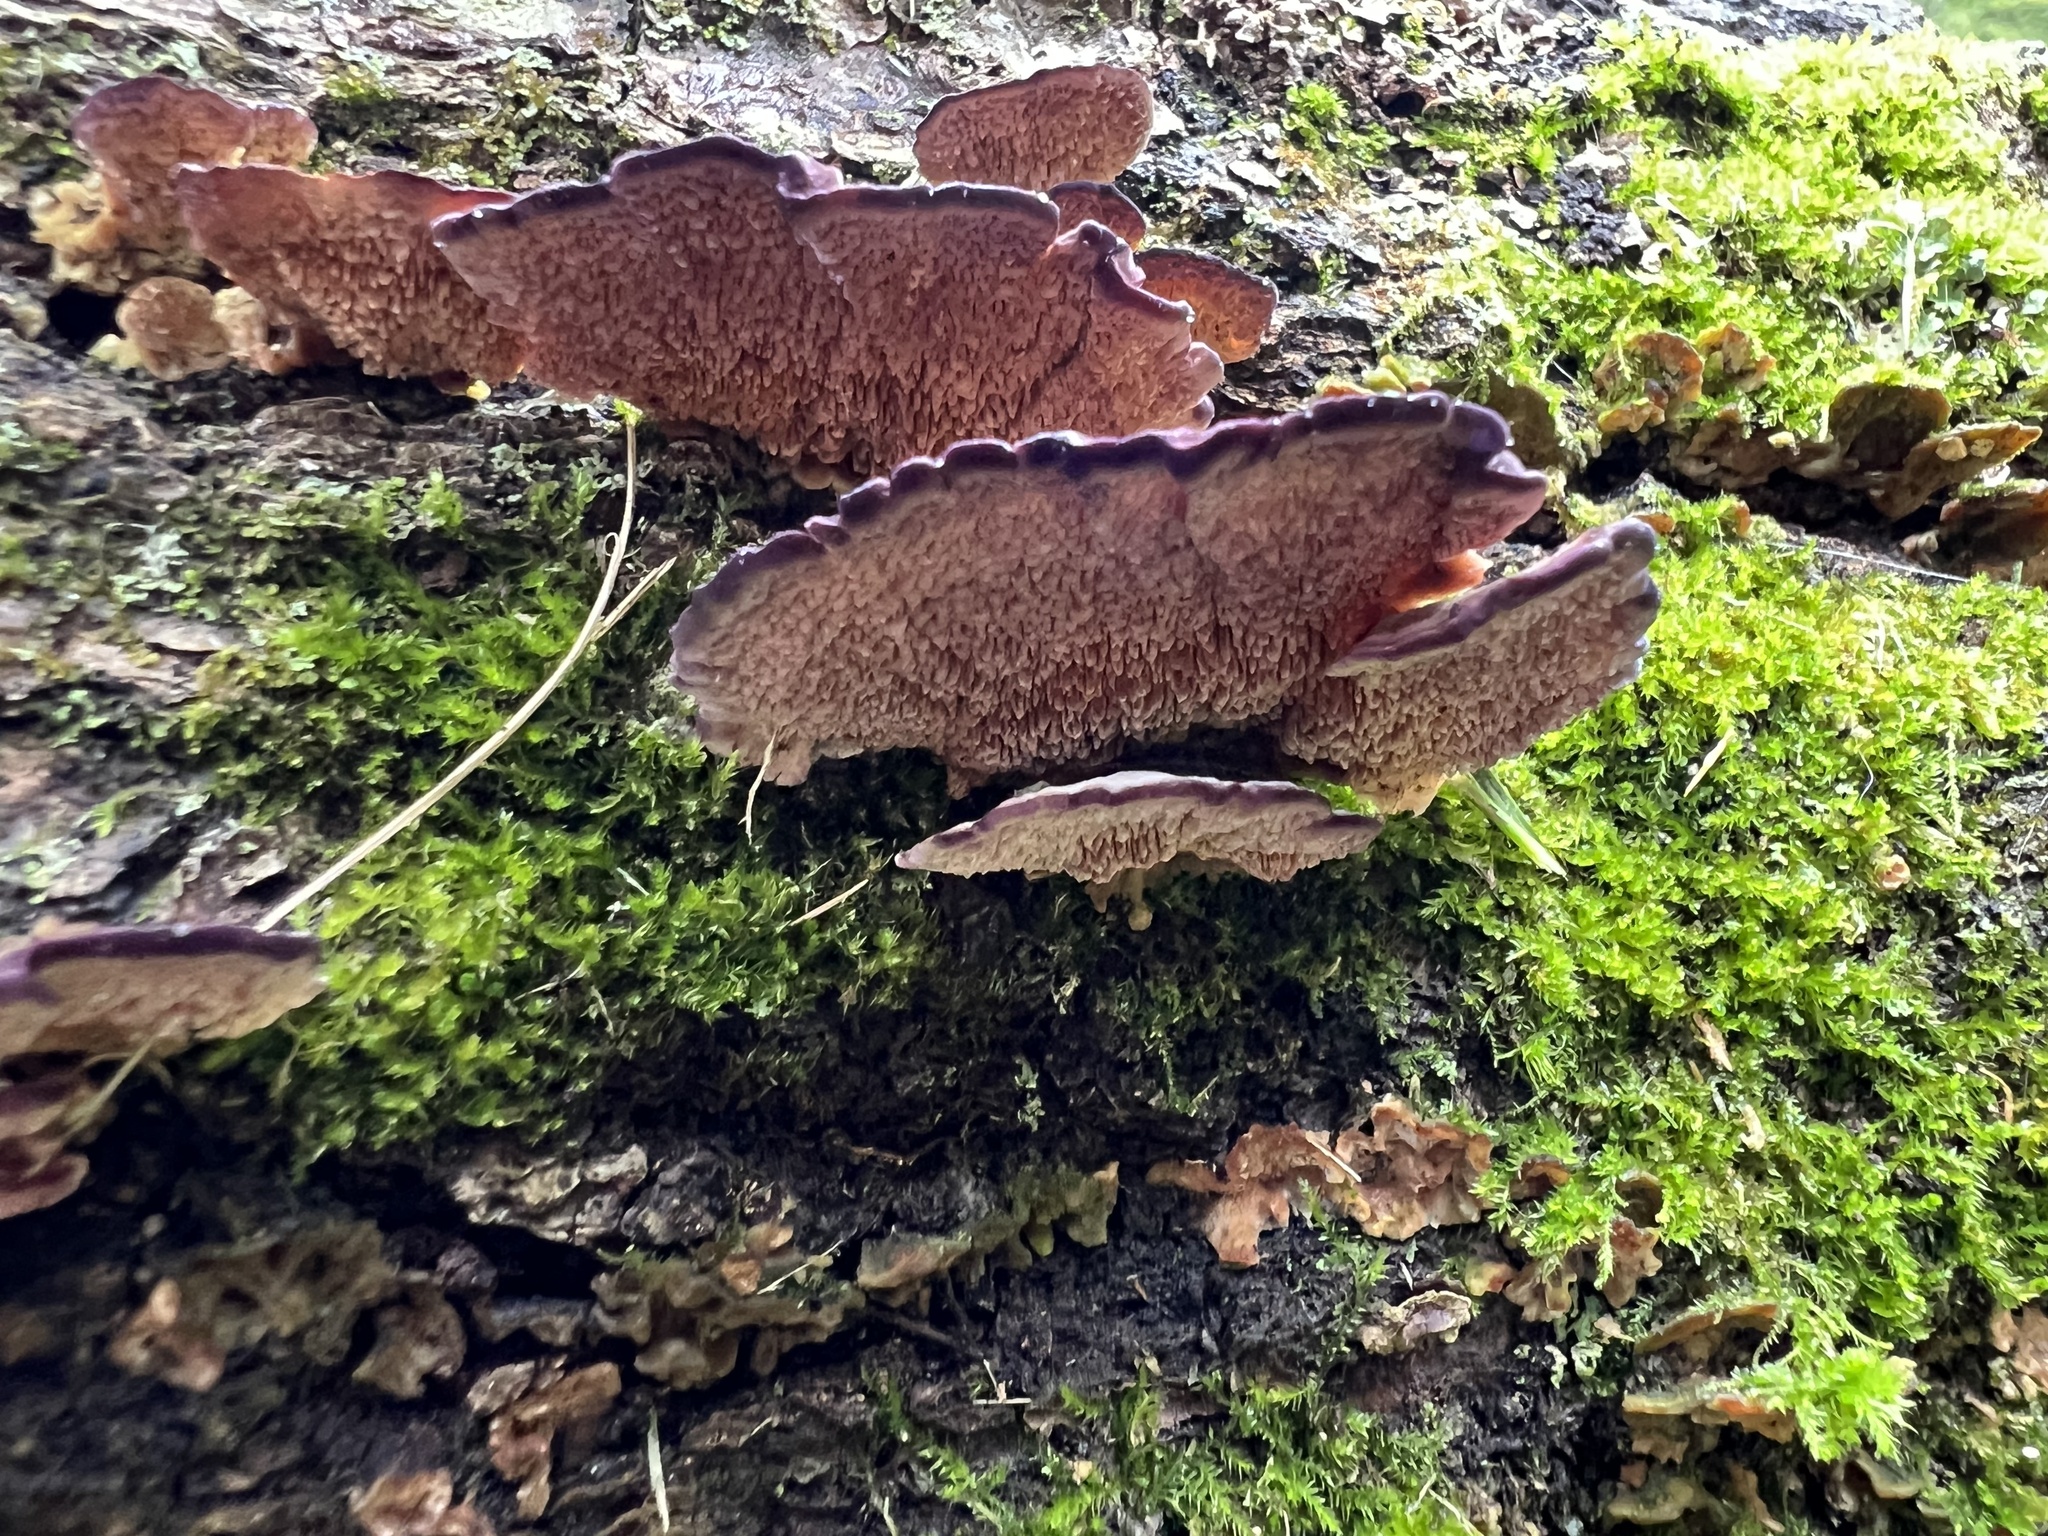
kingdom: Fungi
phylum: Basidiomycota
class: Agaricomycetes
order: Hymenochaetales
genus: Trichaptum
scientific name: Trichaptum biforme
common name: Violet-toothed polypore
